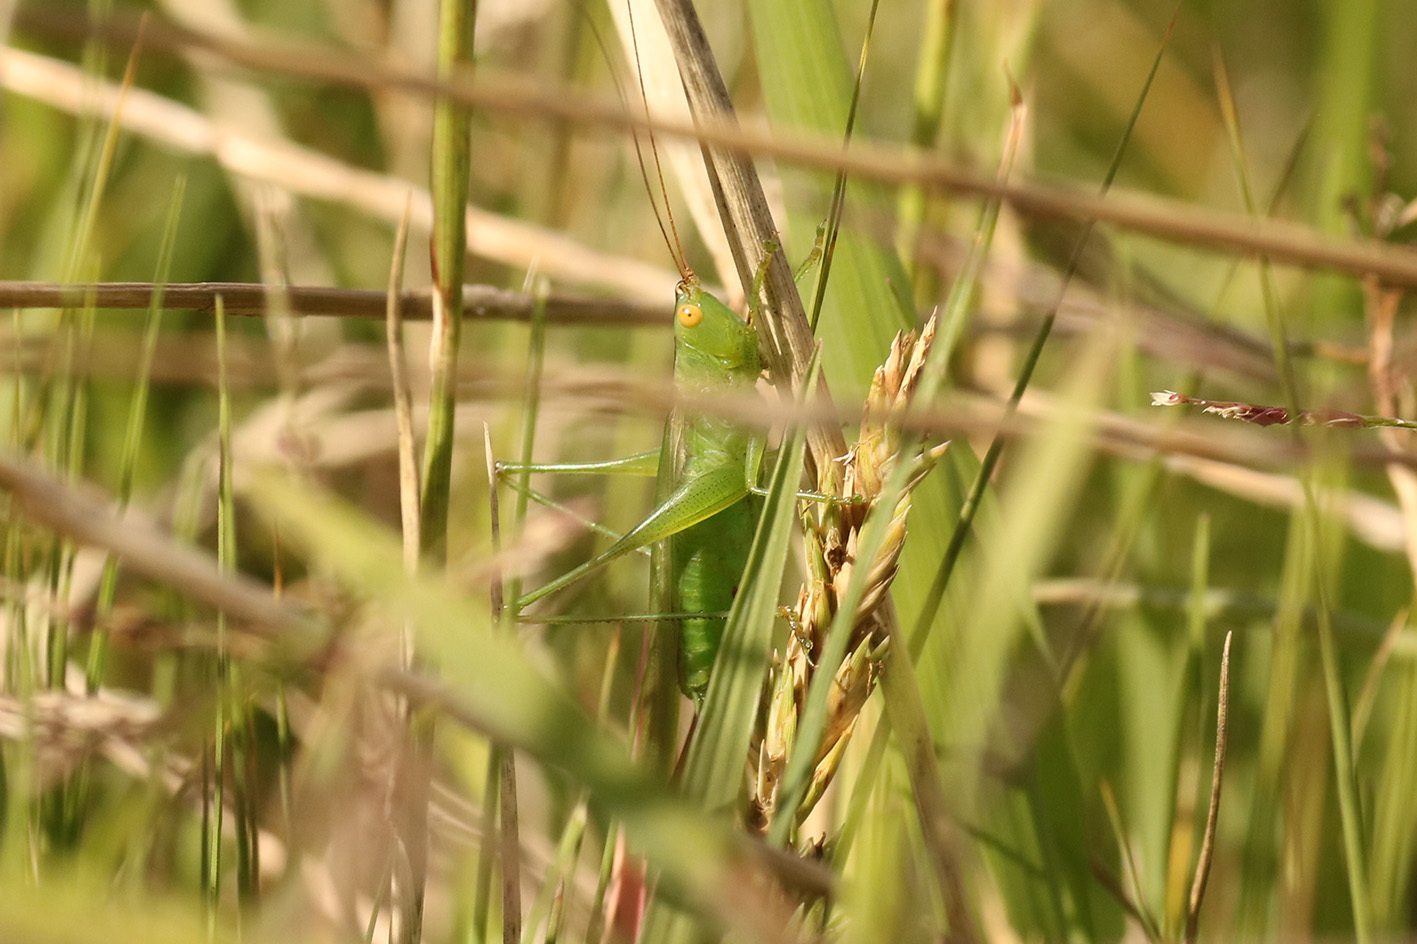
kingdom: Animalia
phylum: Arthropoda
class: Insecta
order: Orthoptera
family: Tettigoniidae
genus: Conocephalus
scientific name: Conocephalus longipes
